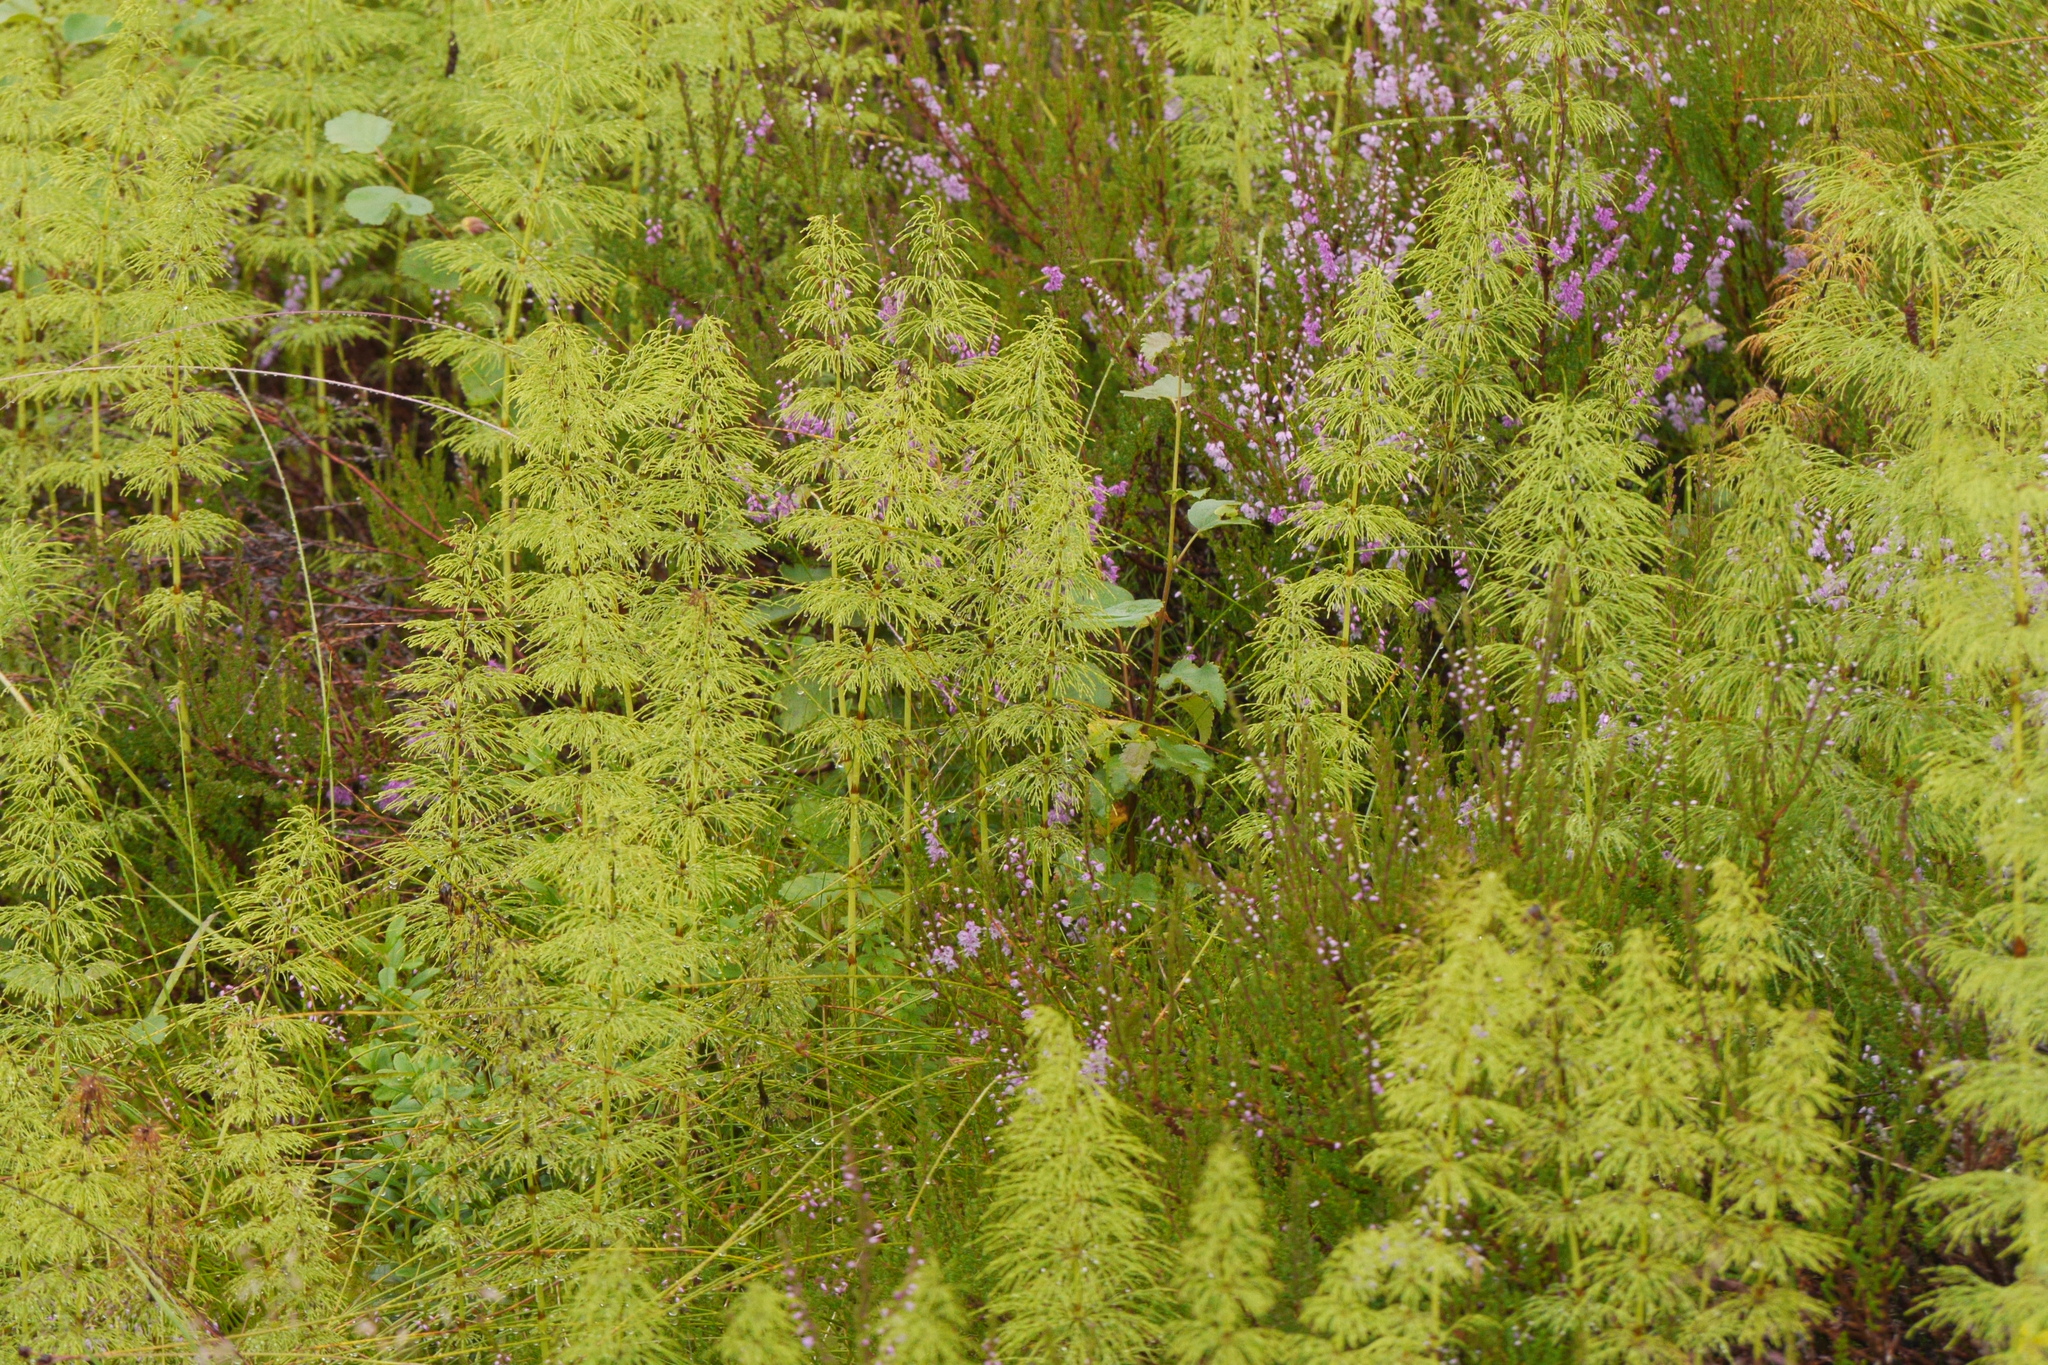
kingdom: Plantae
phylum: Tracheophyta
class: Polypodiopsida
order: Equisetales
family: Equisetaceae
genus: Equisetum
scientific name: Equisetum sylvaticum
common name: Wood horsetail
